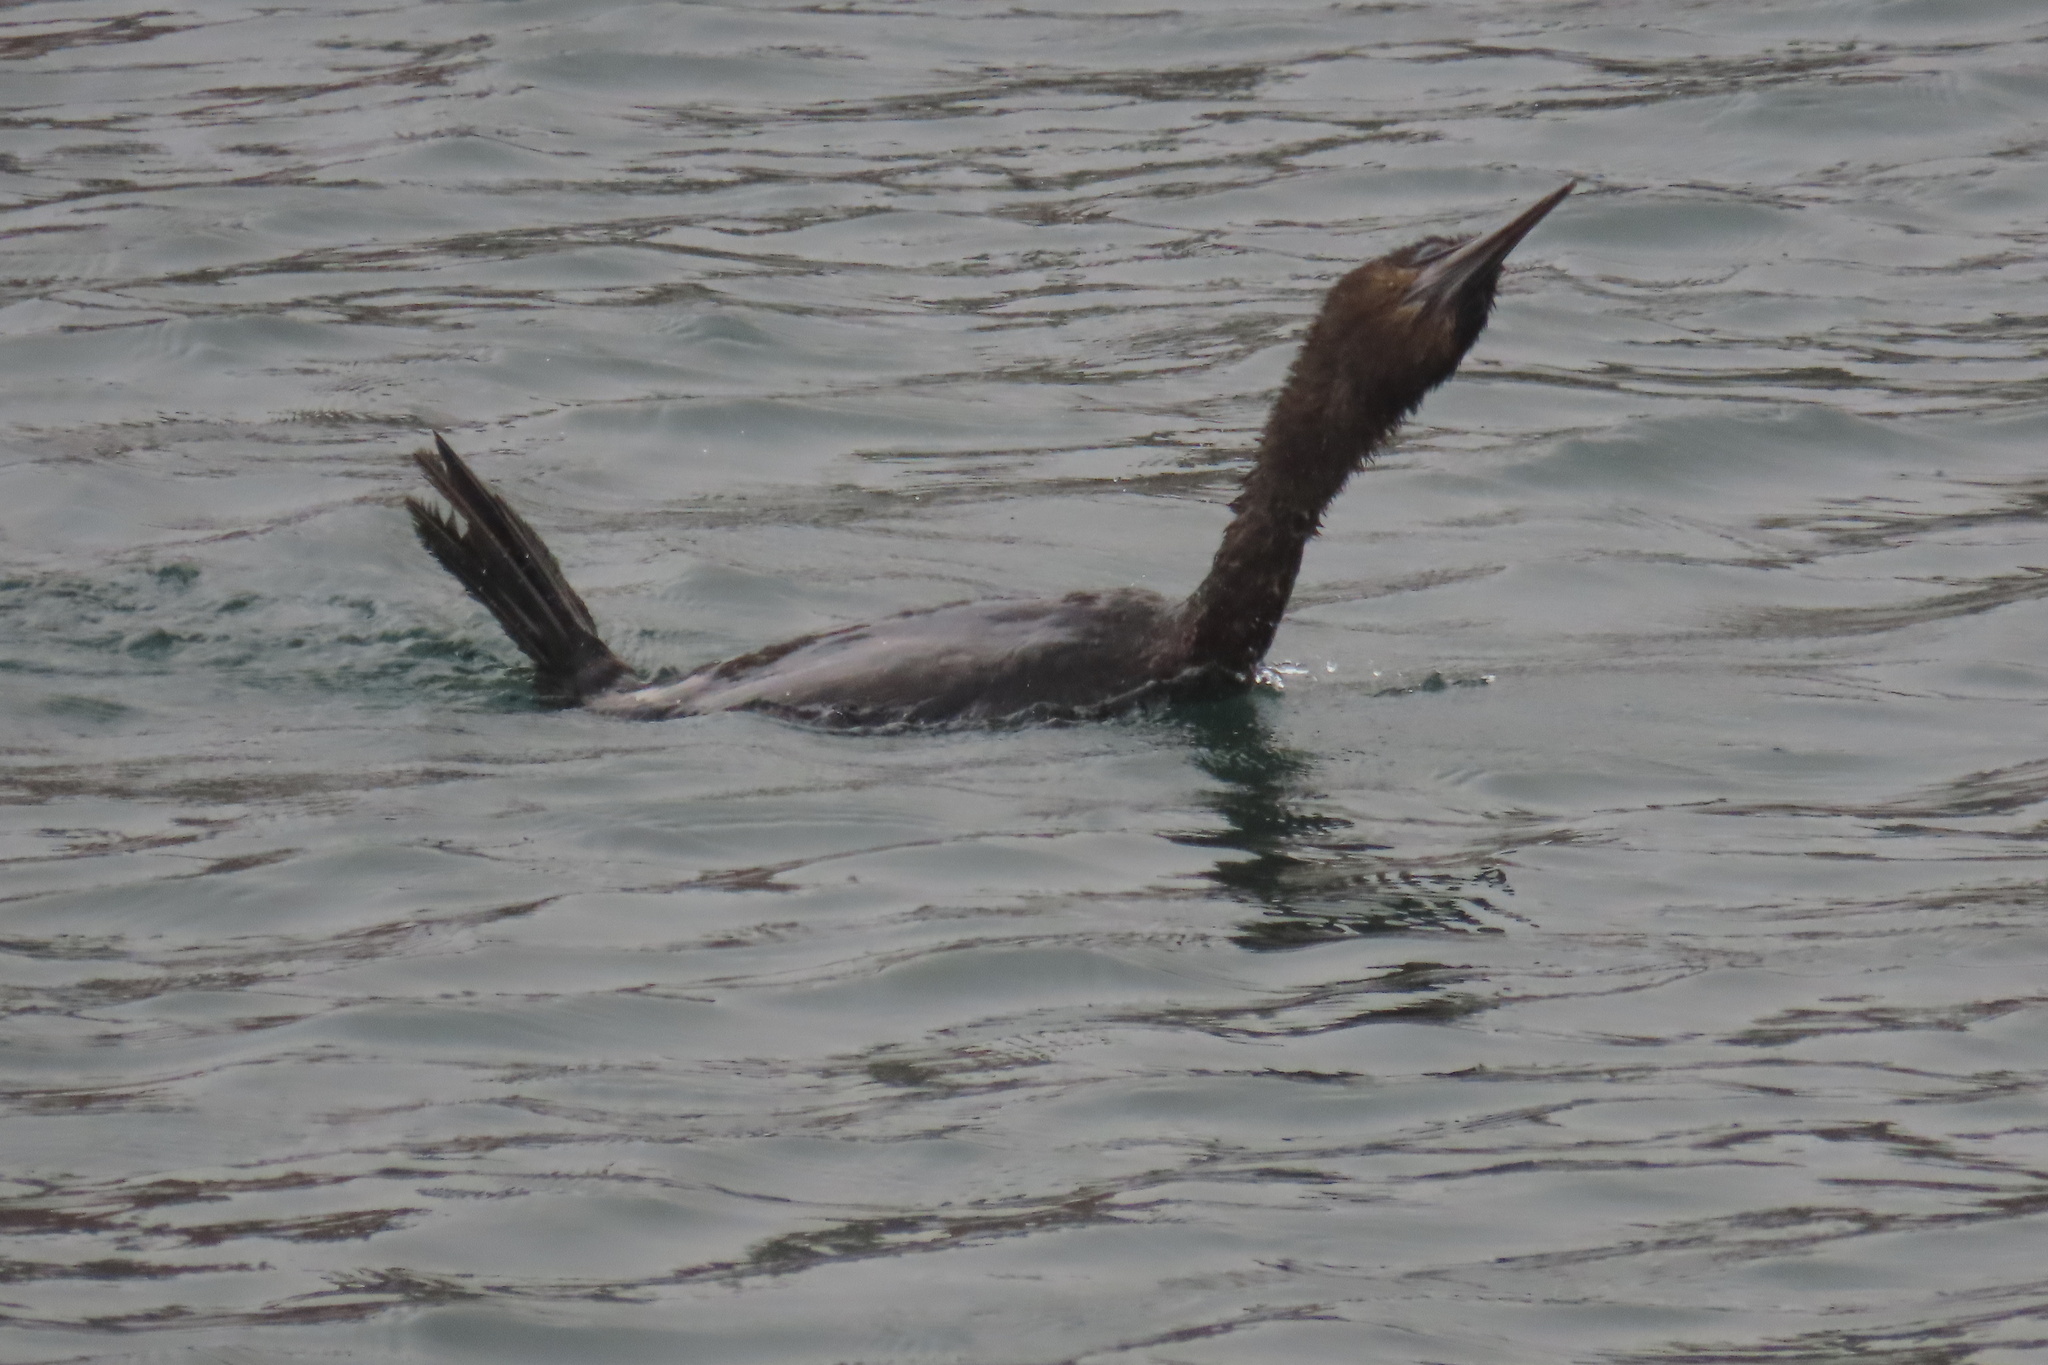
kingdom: Animalia
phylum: Chordata
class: Aves
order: Suliformes
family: Phalacrocoracidae
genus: Urile
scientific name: Urile penicillatus
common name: Brandt's cormorant
